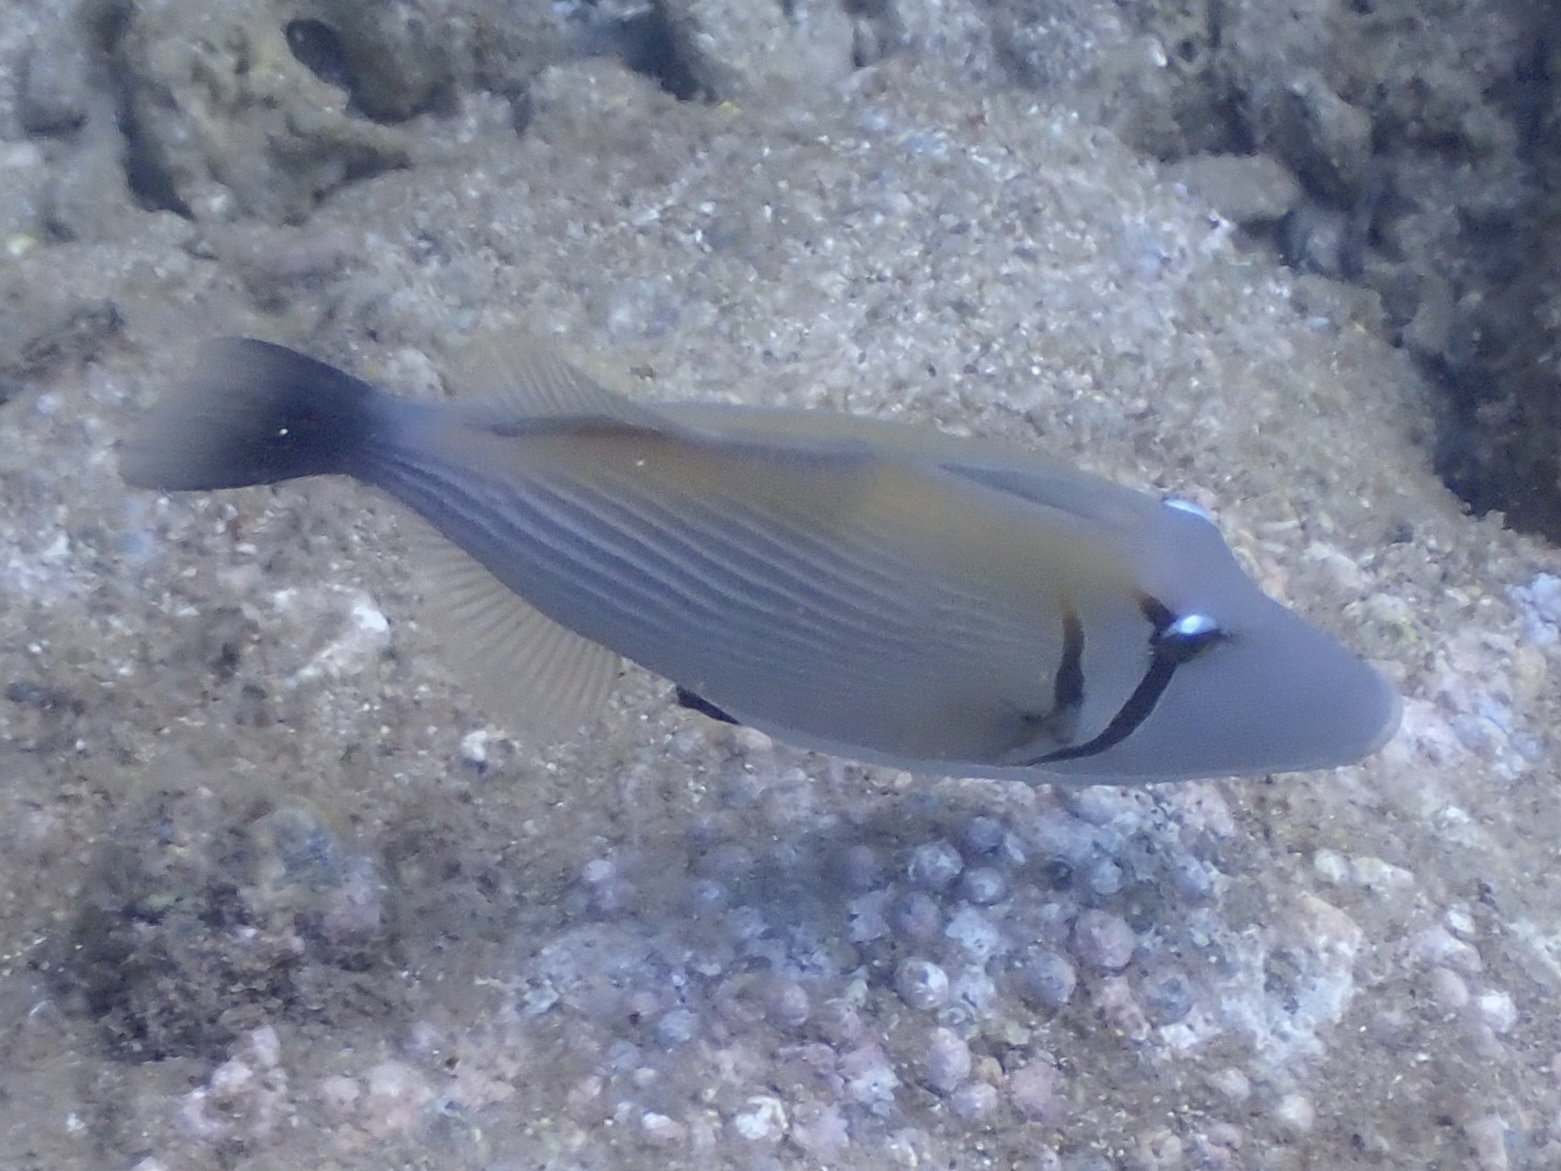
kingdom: Animalia
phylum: Chordata
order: Tetraodontiformes
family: Balistidae
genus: Sufflamen
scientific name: Sufflamen bursa
